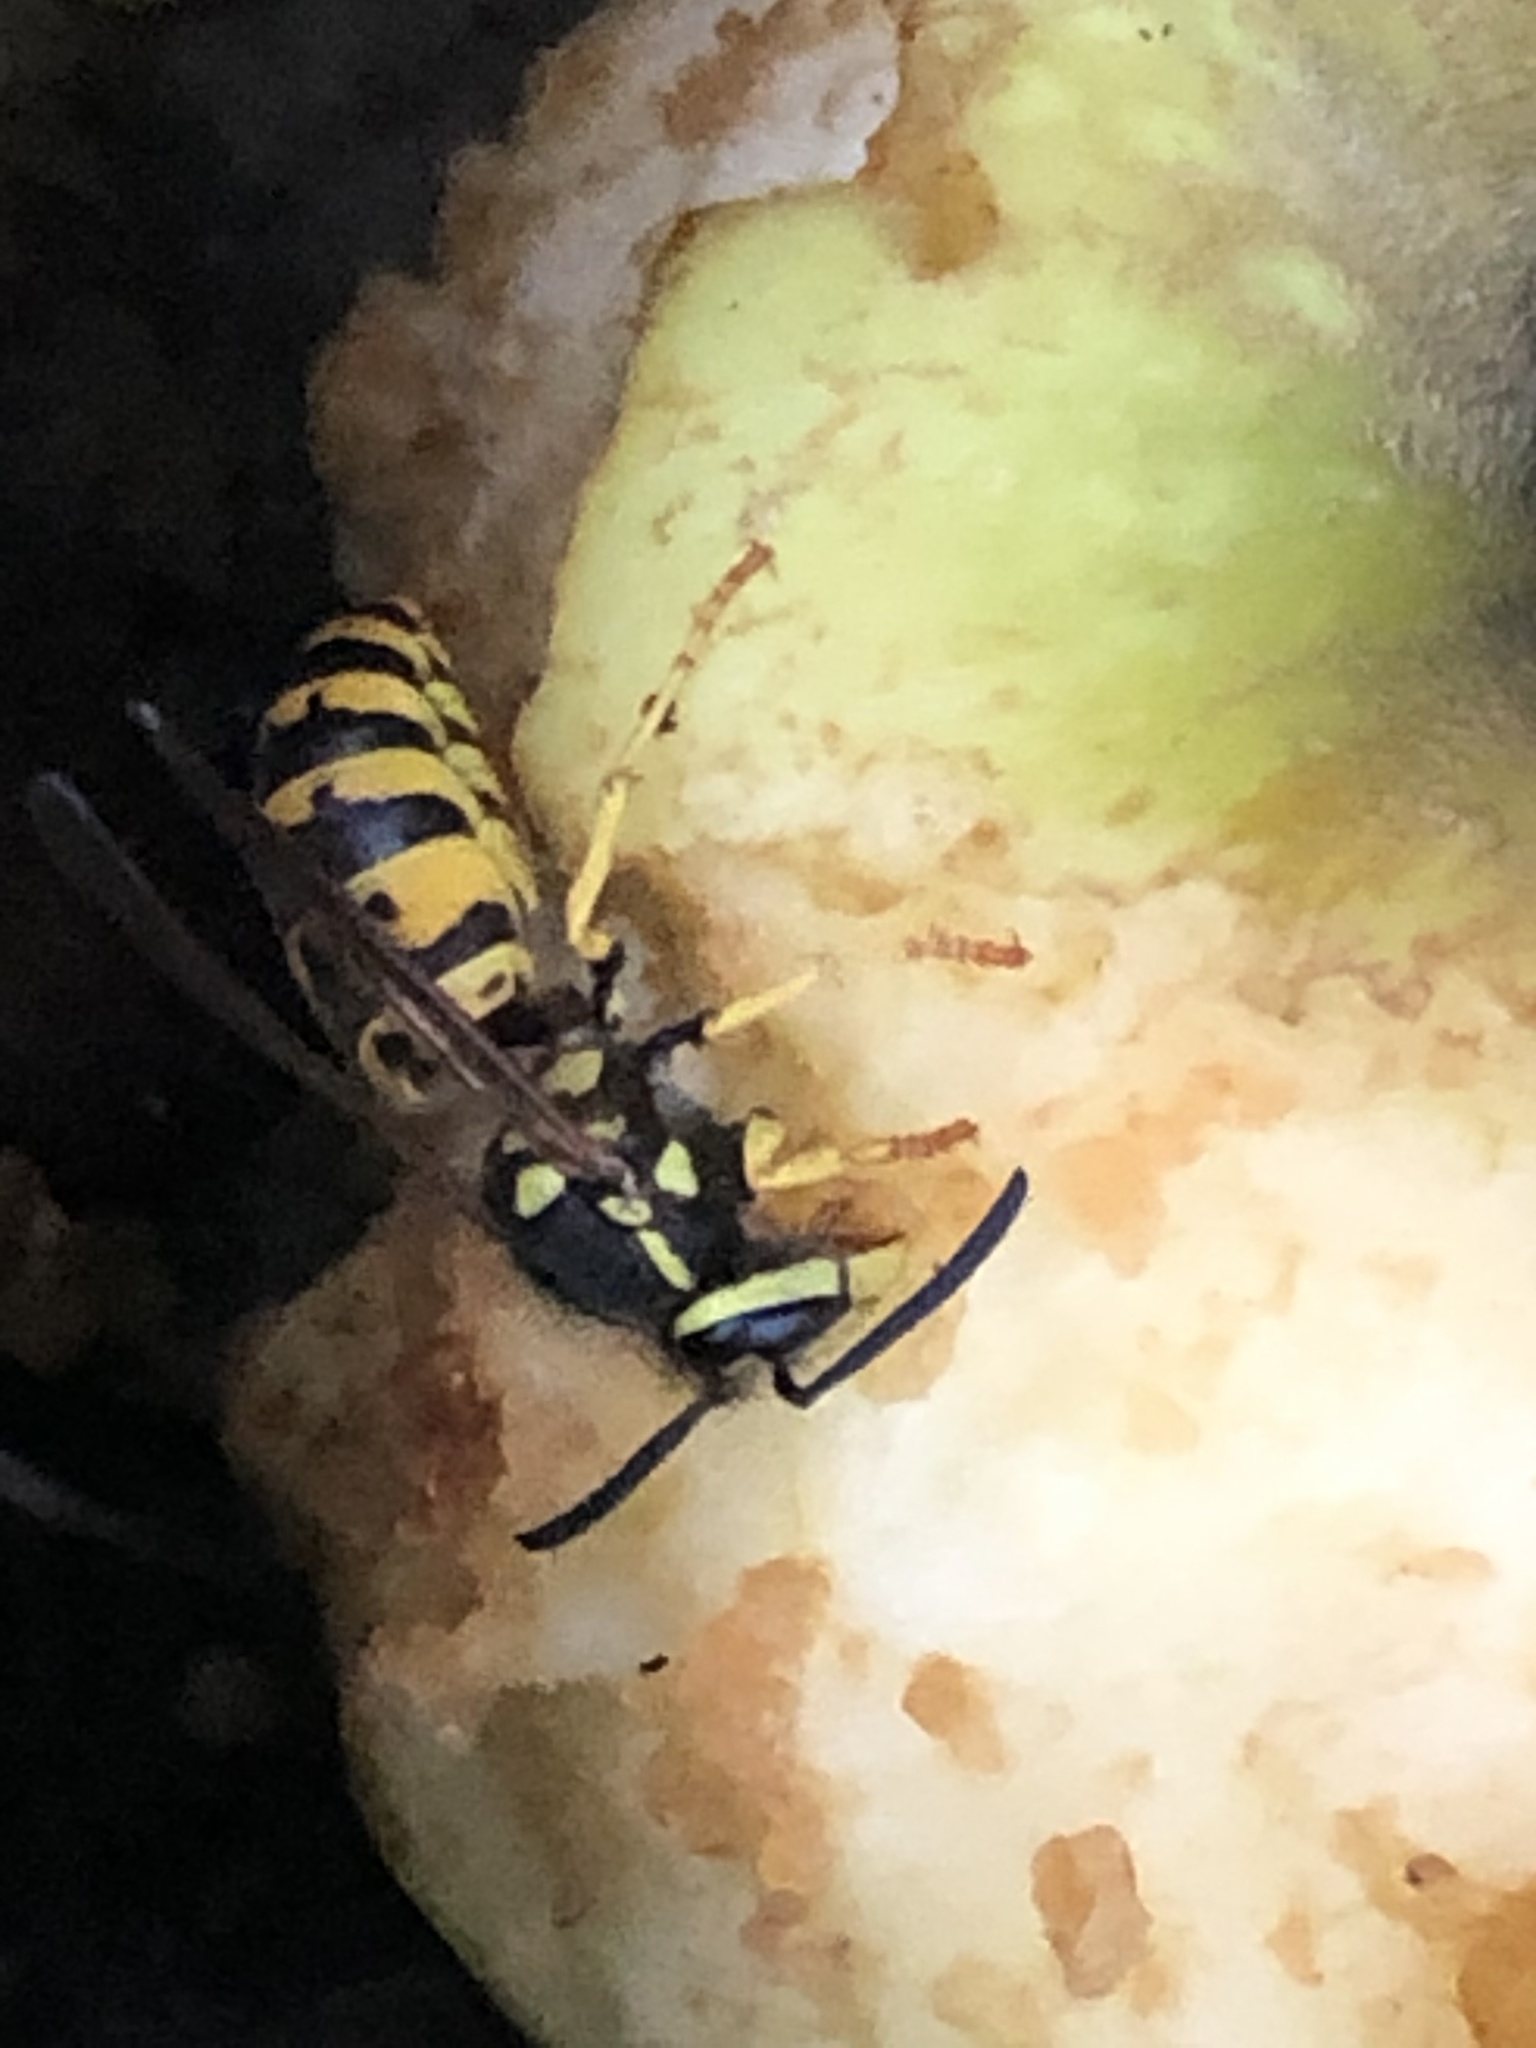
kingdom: Animalia
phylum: Arthropoda
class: Insecta
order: Hymenoptera
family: Vespidae
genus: Vespula
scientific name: Vespula germanica
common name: German wasp
